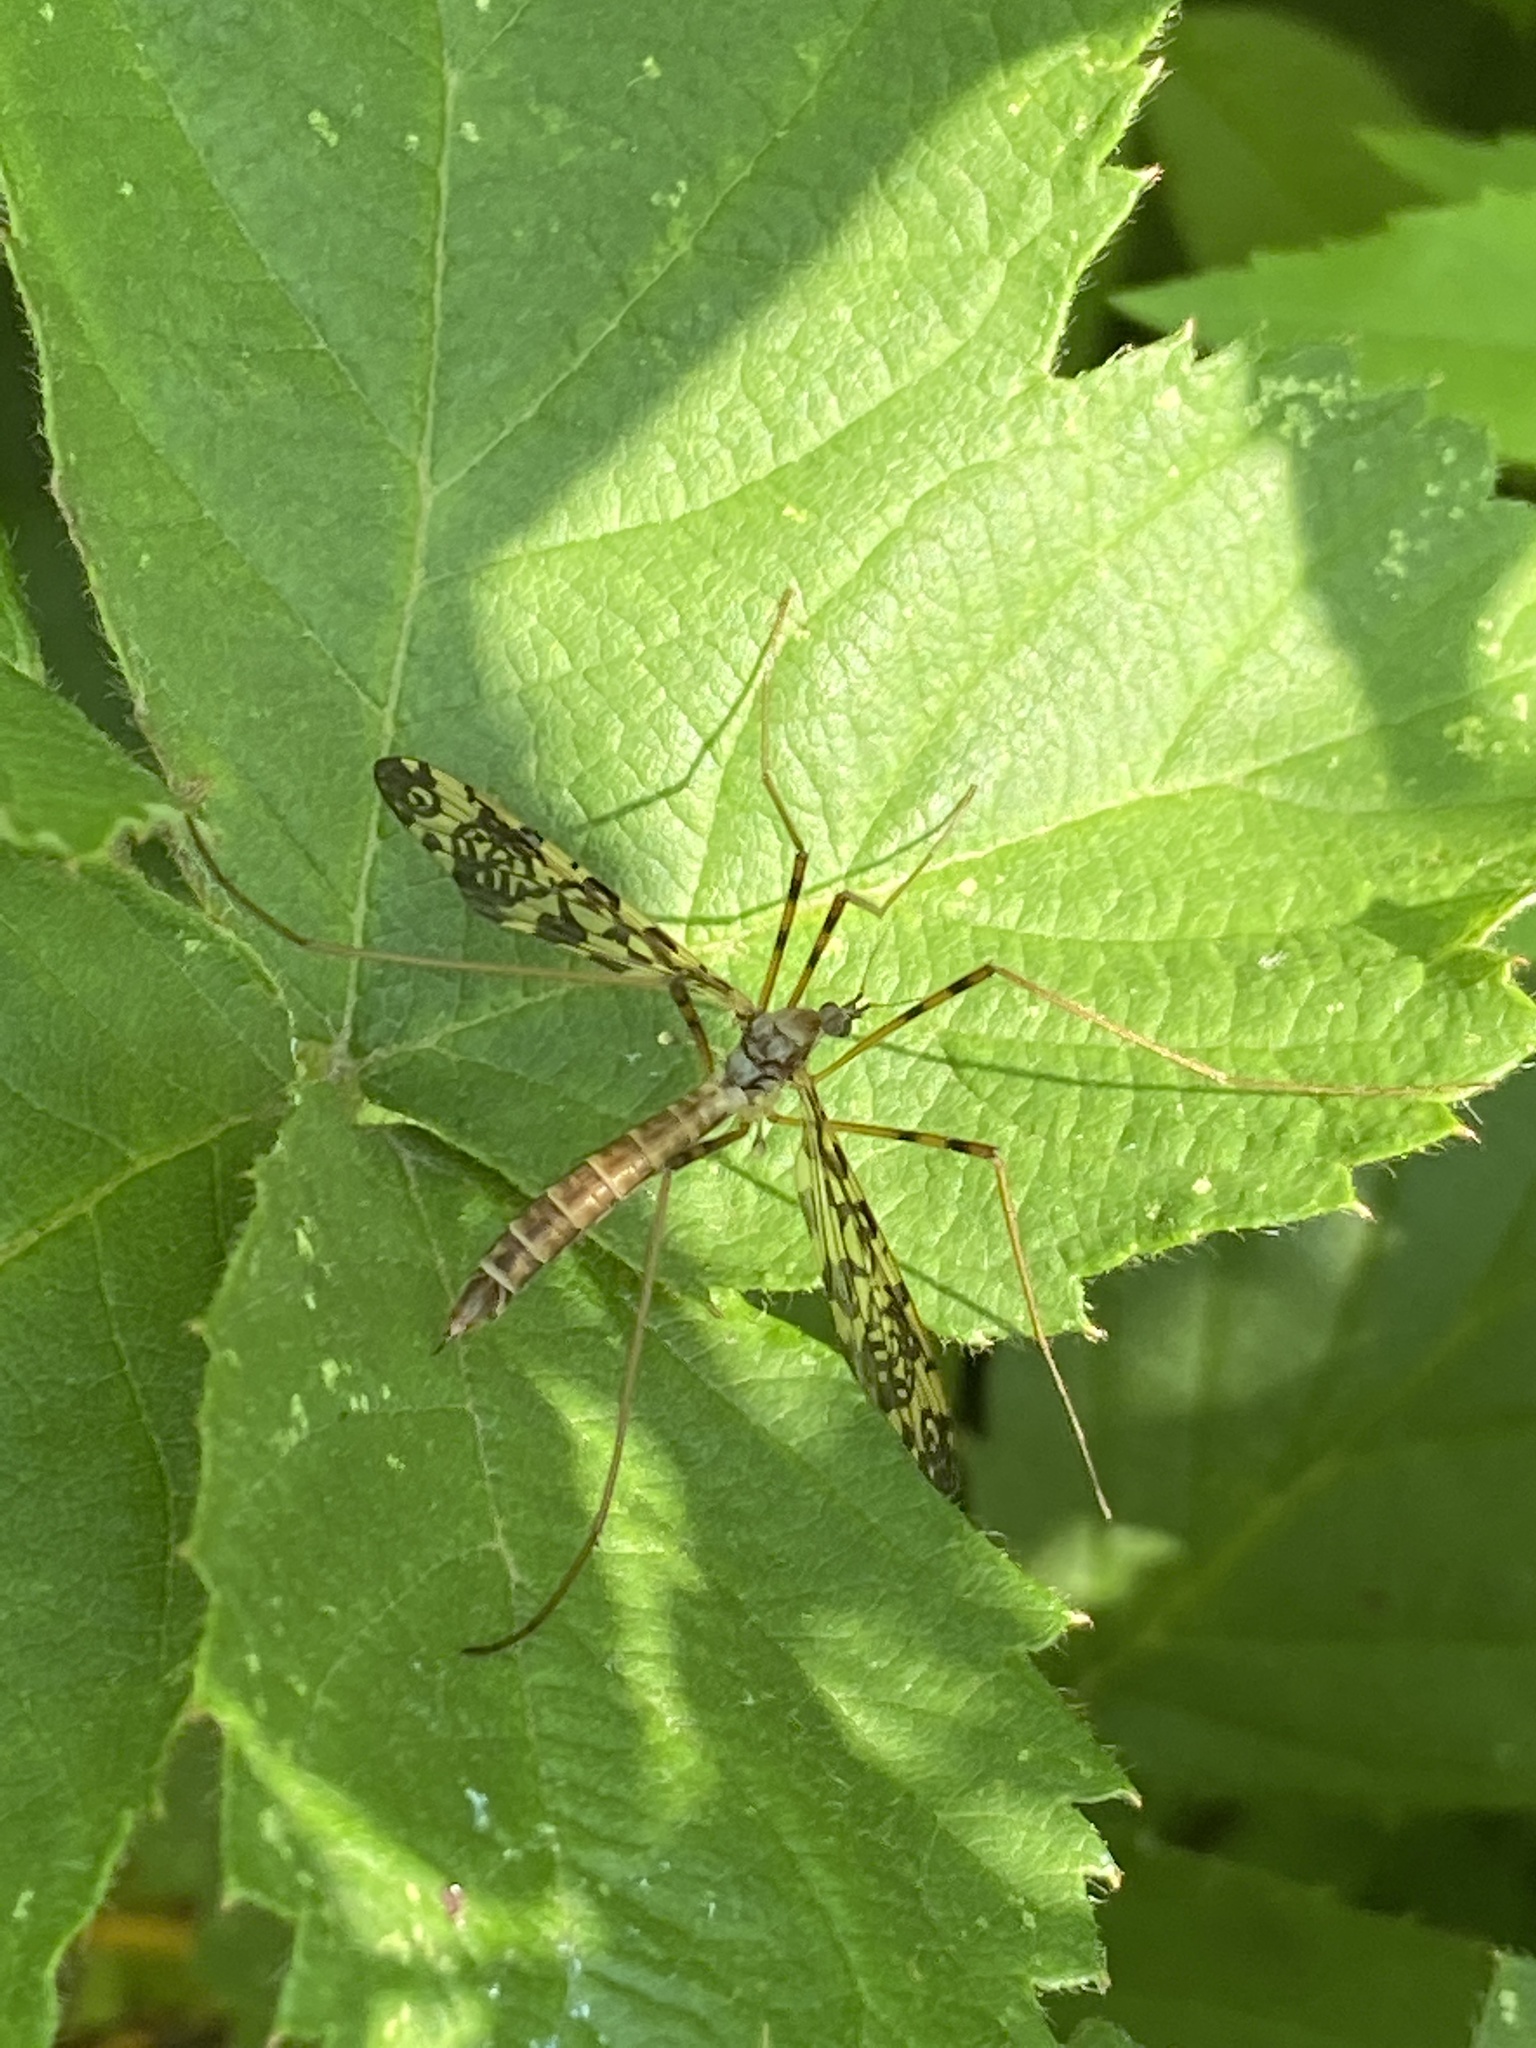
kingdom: Animalia
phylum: Arthropoda
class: Insecta
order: Diptera
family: Limoniidae
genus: Epiphragma
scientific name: Epiphragma ocellare
